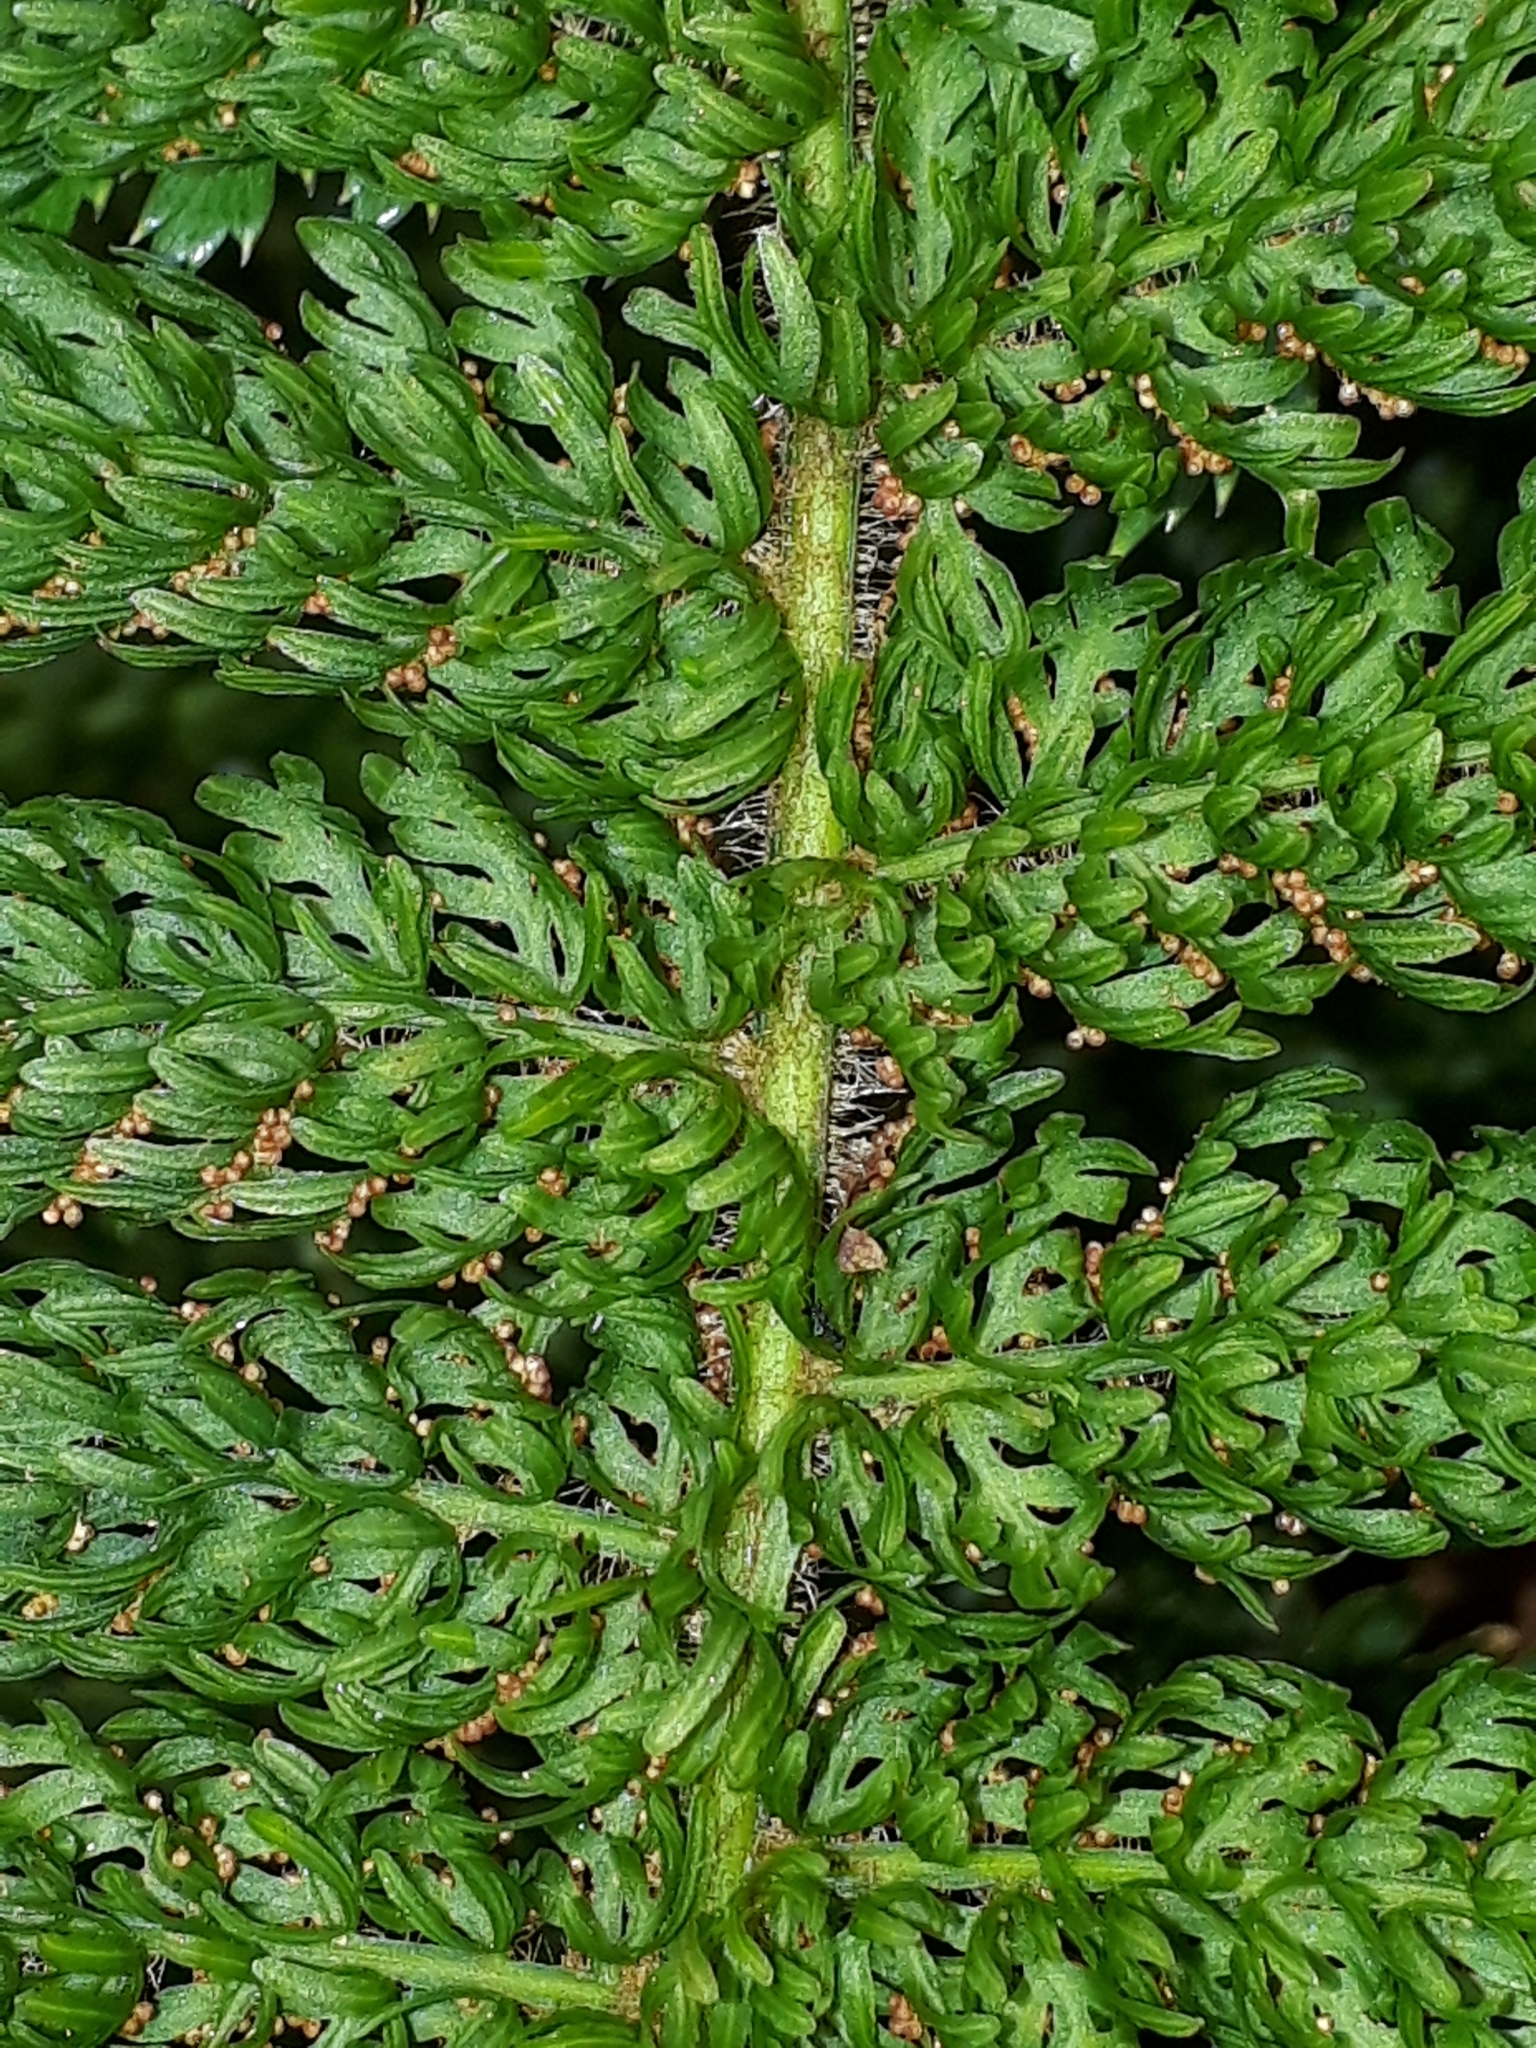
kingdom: Plantae
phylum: Tracheophyta
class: Polypodiopsida
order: Osmundales
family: Osmundaceae
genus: Leptopteris
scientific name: Leptopteris superba
